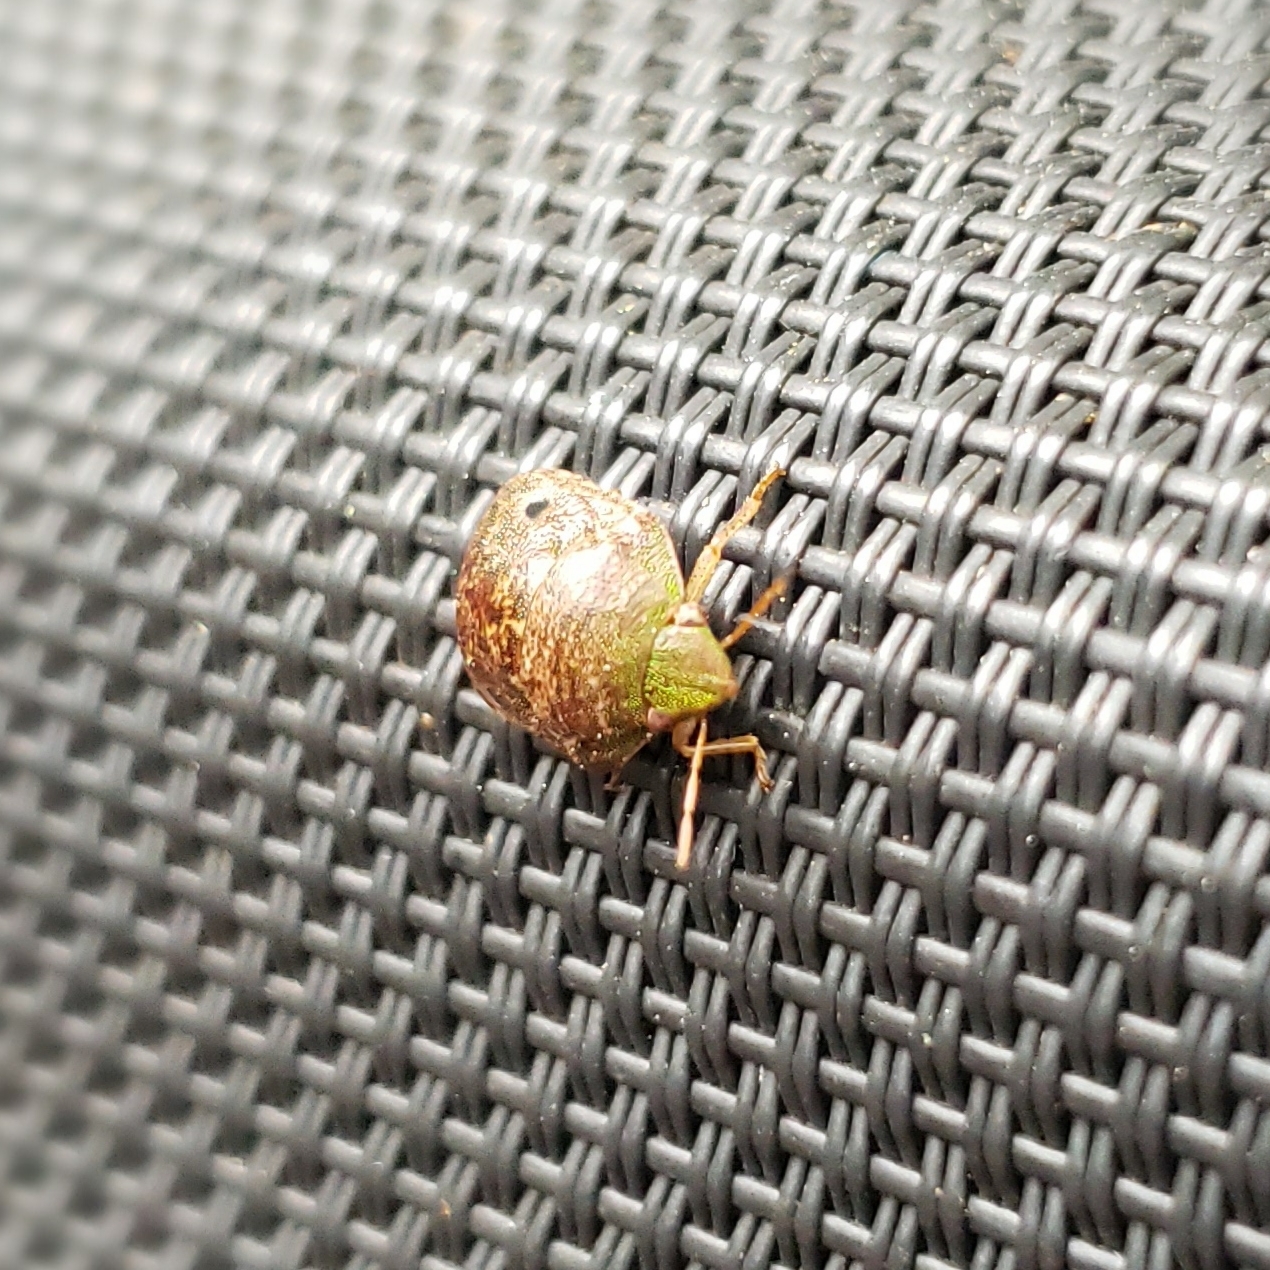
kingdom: Animalia
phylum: Arthropoda
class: Insecta
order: Hemiptera
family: Scutelleridae
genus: Diolcus
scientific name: Diolcus chrysorrhoeus
